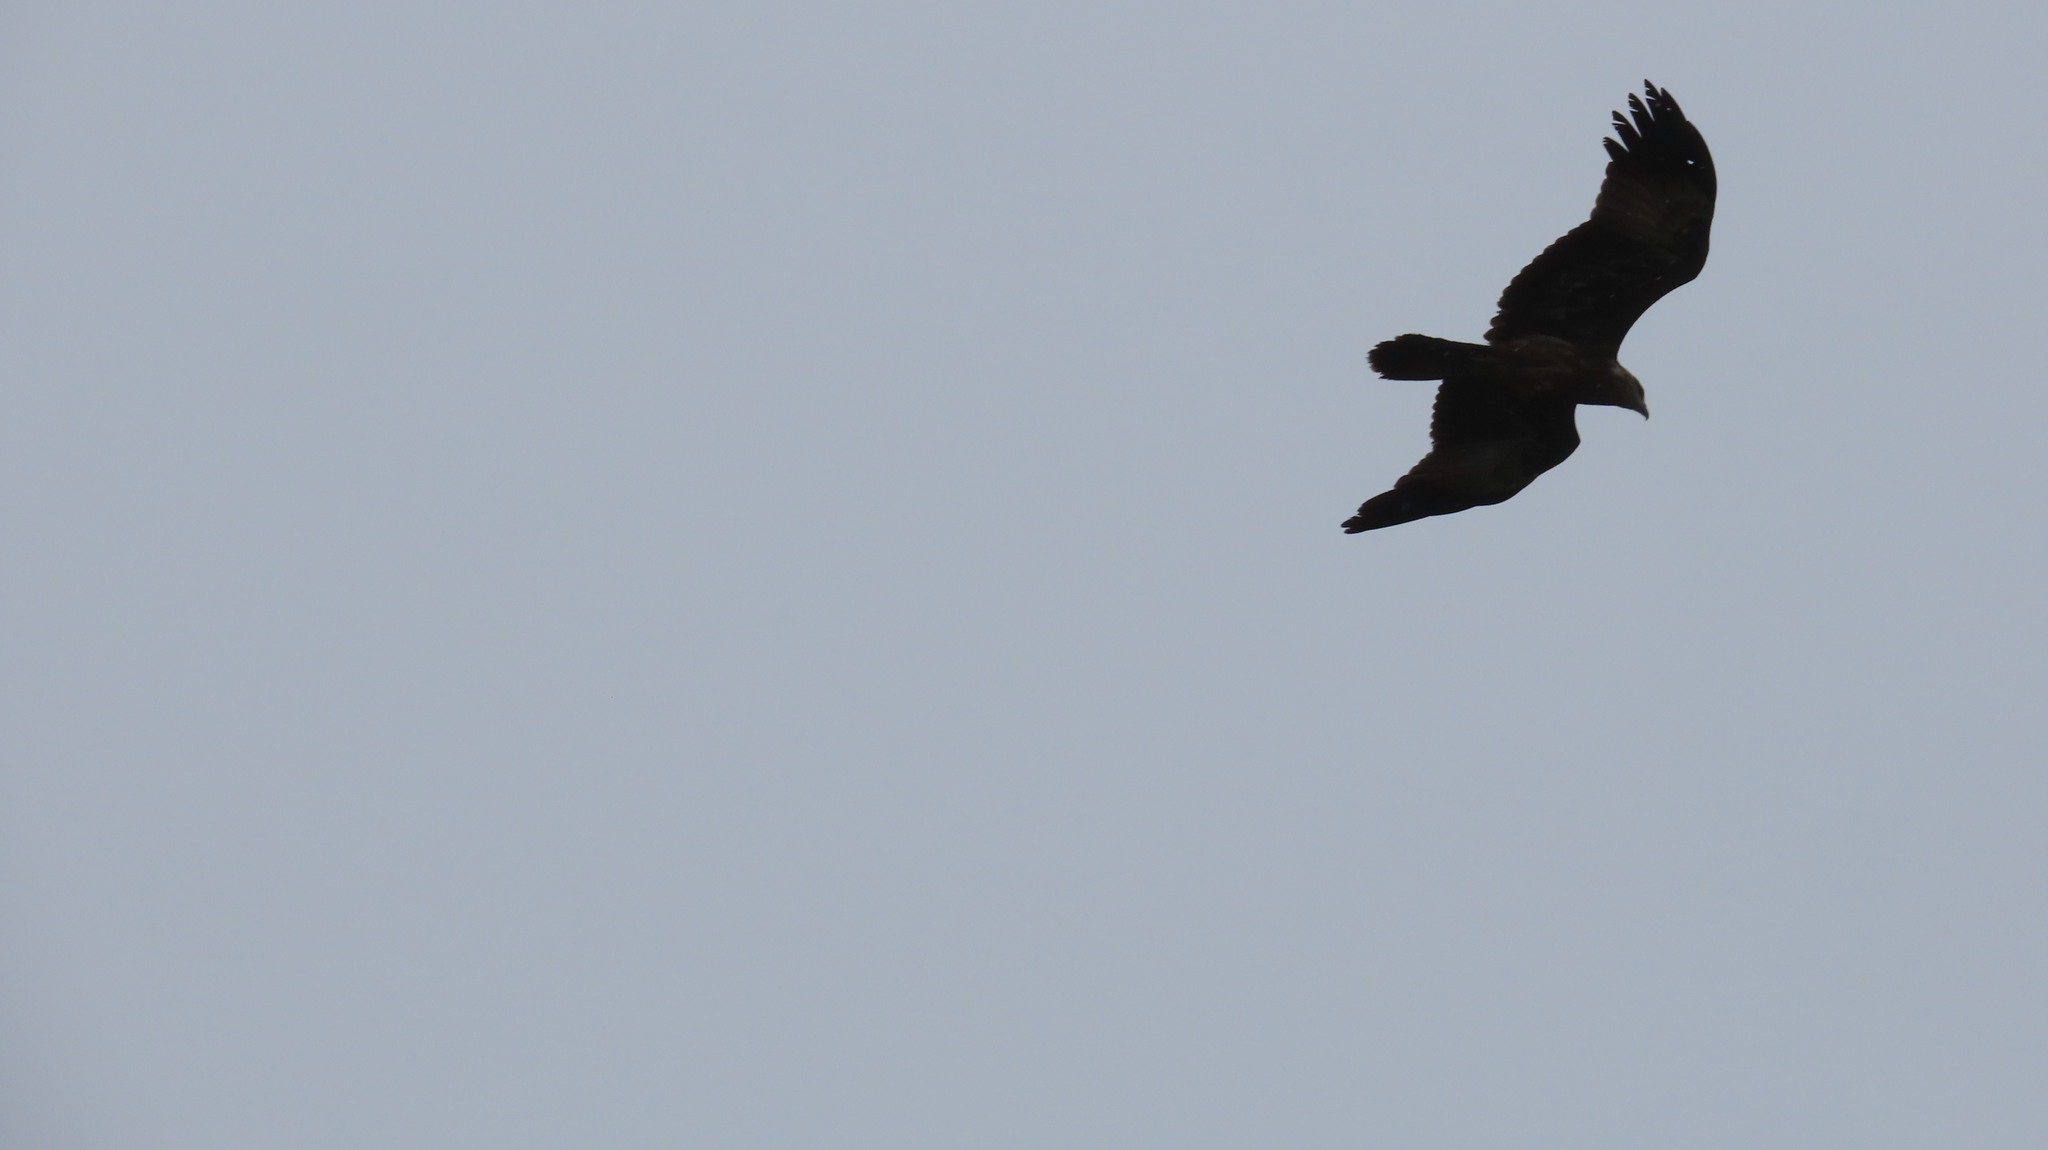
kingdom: Animalia
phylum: Chordata
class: Aves
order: Accipitriformes
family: Accipitridae
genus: Haliastur
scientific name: Haliastur indus
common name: Brahminy kite
